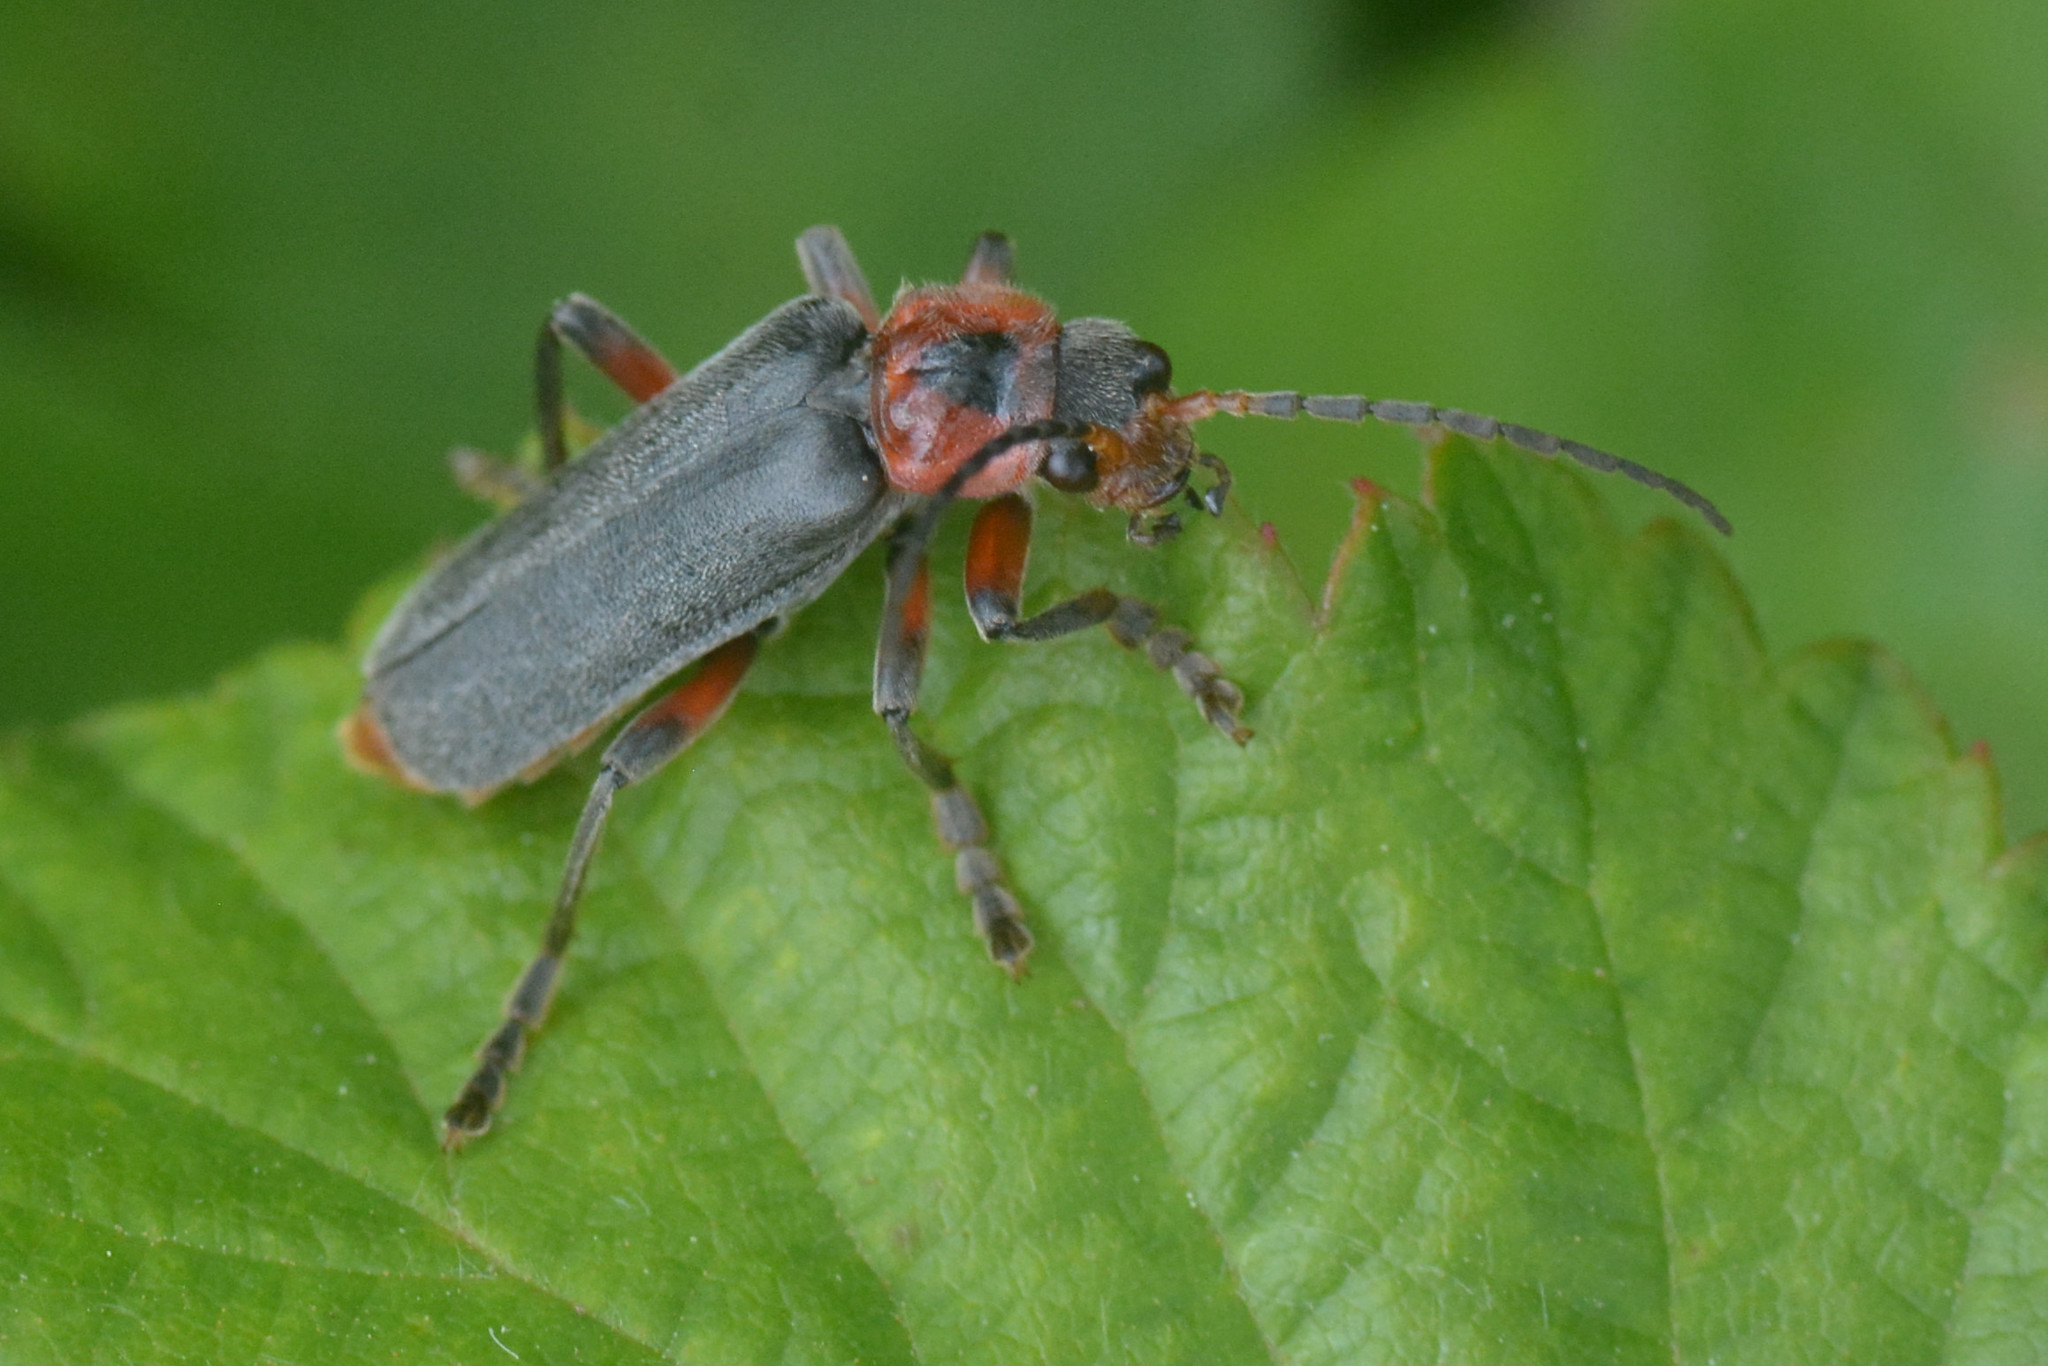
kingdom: Animalia
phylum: Arthropoda
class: Insecta
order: Coleoptera
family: Cantharidae
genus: Cantharis
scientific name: Cantharis rustica
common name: Soldier beetle
